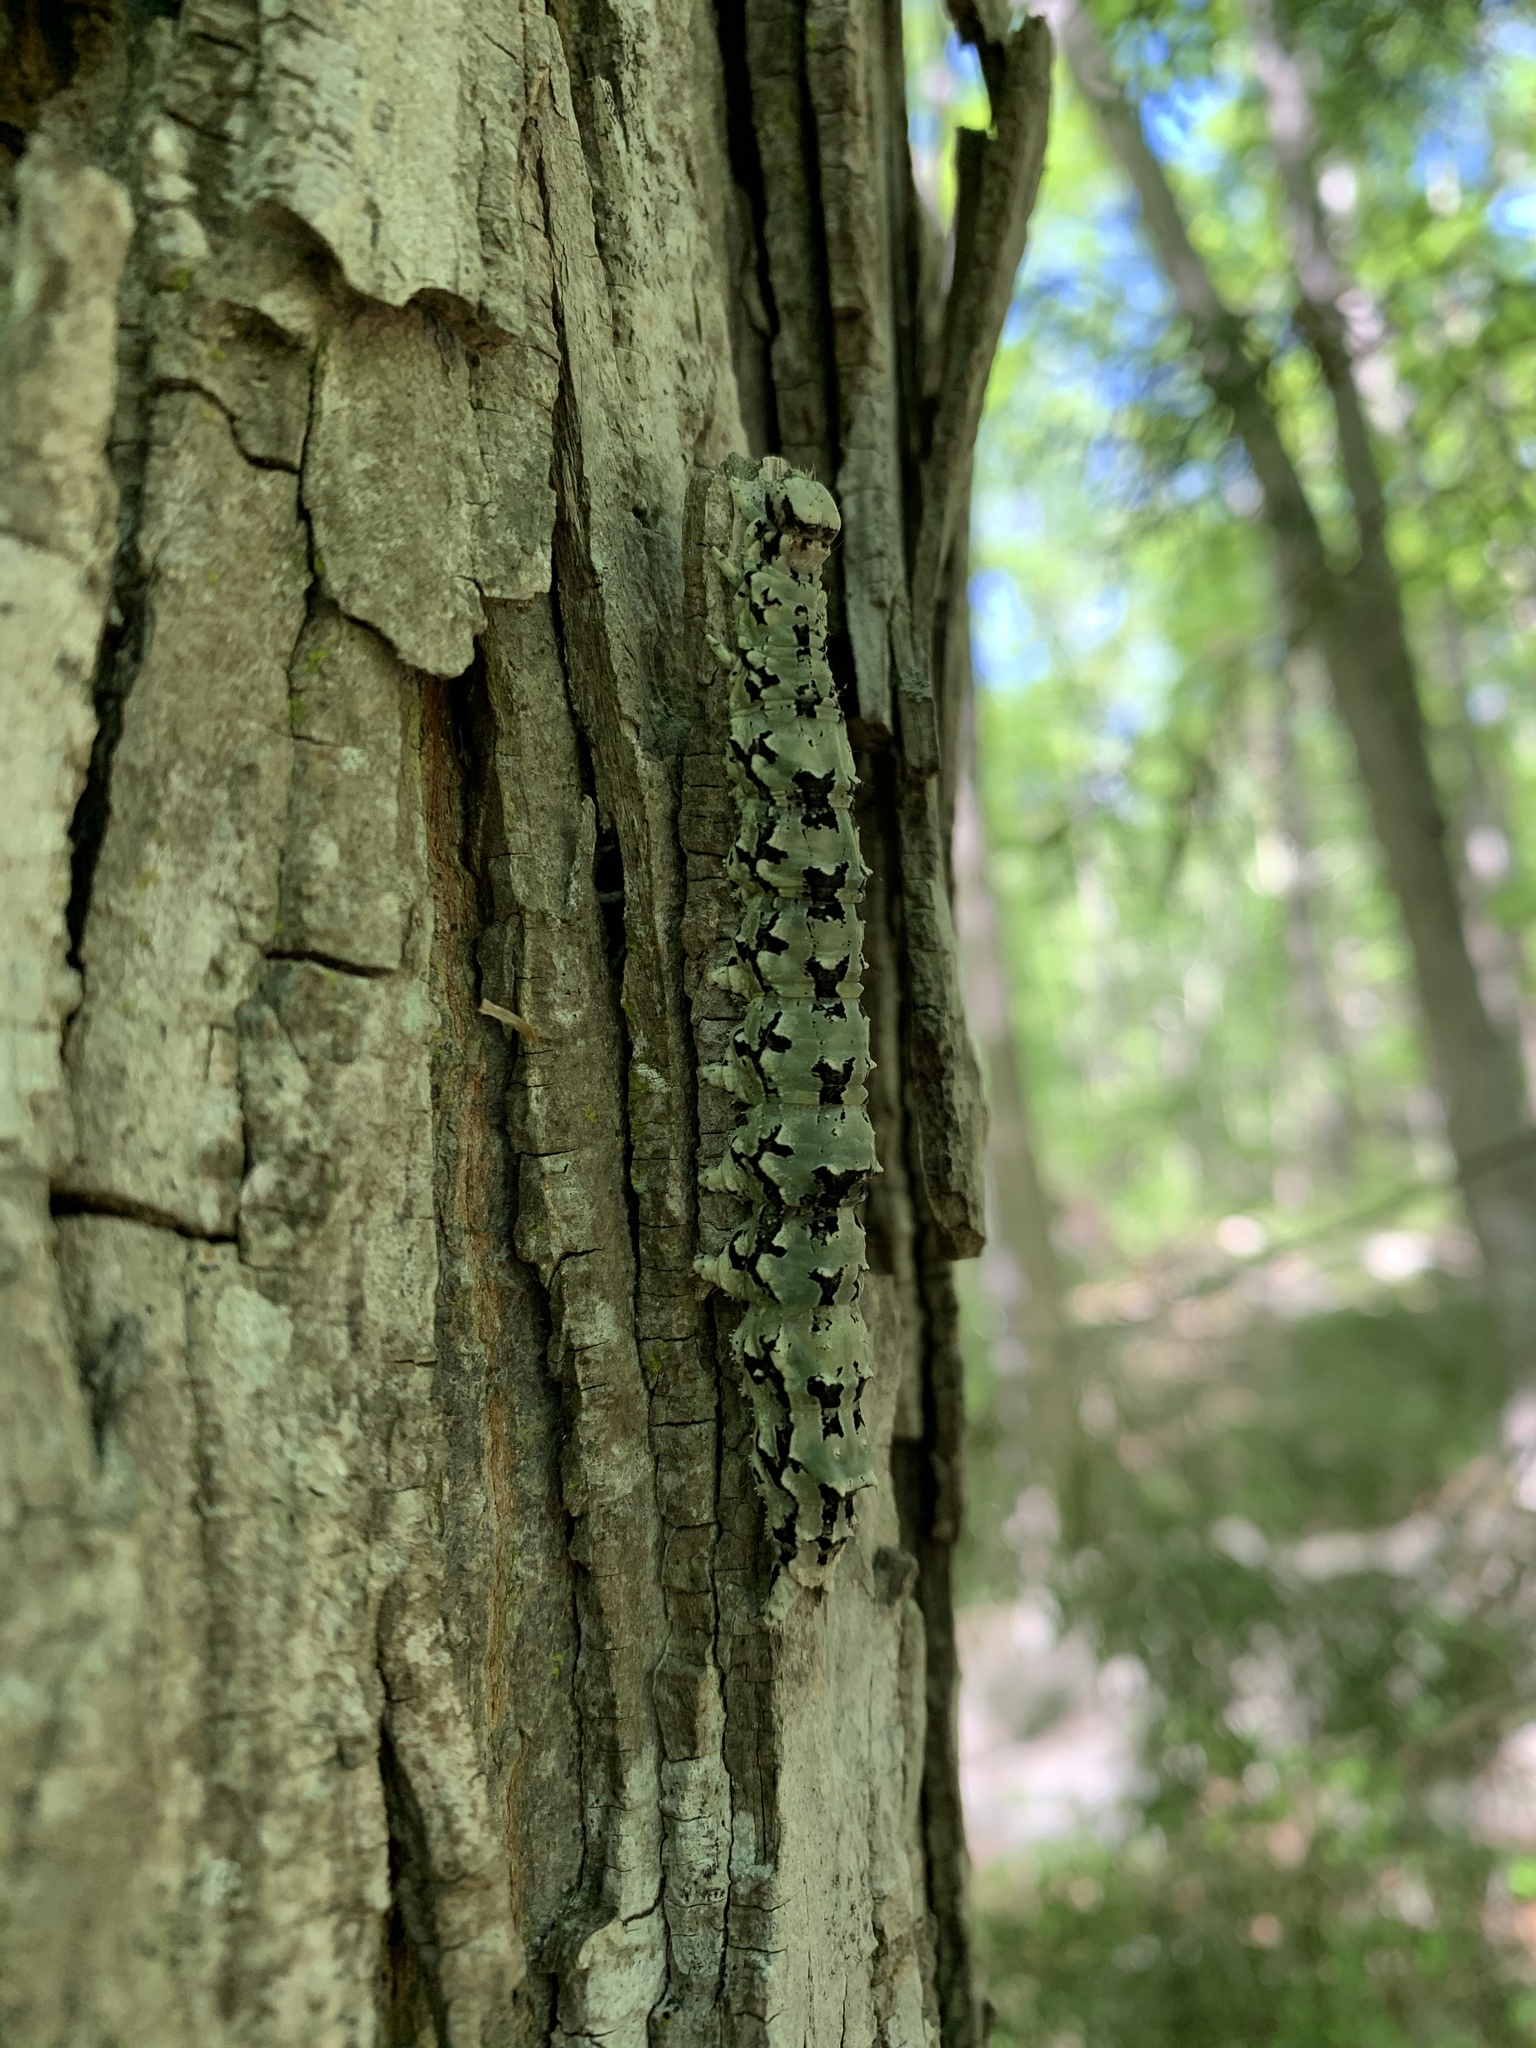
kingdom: Animalia
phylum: Arthropoda
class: Insecta
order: Lepidoptera
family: Erebidae
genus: Catocala
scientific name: Catocala ilia
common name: Ilia underwing
